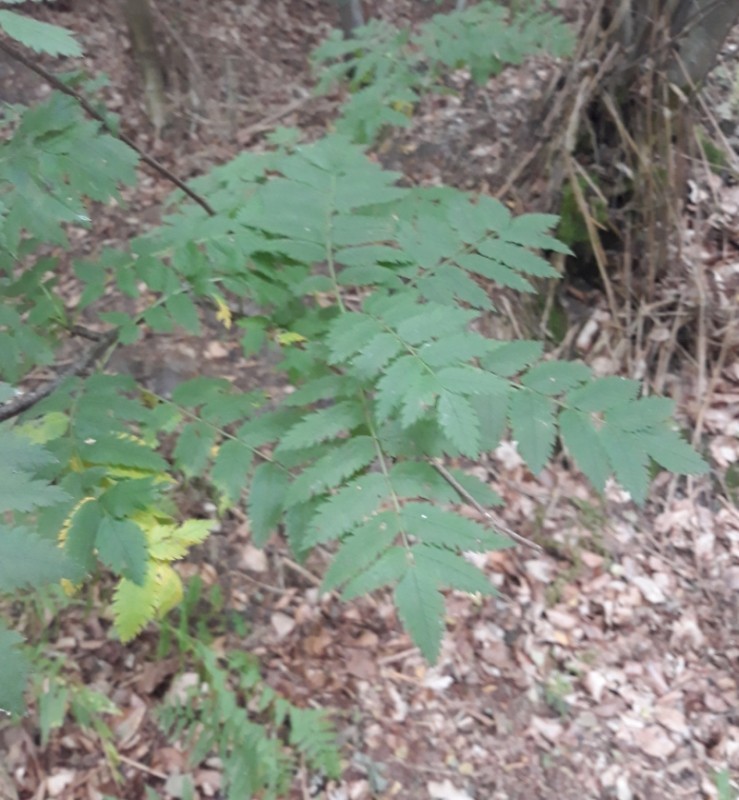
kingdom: Plantae
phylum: Tracheophyta
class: Magnoliopsida
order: Rosales
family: Rosaceae
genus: Sorbus
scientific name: Sorbus aucuparia
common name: Rowan
